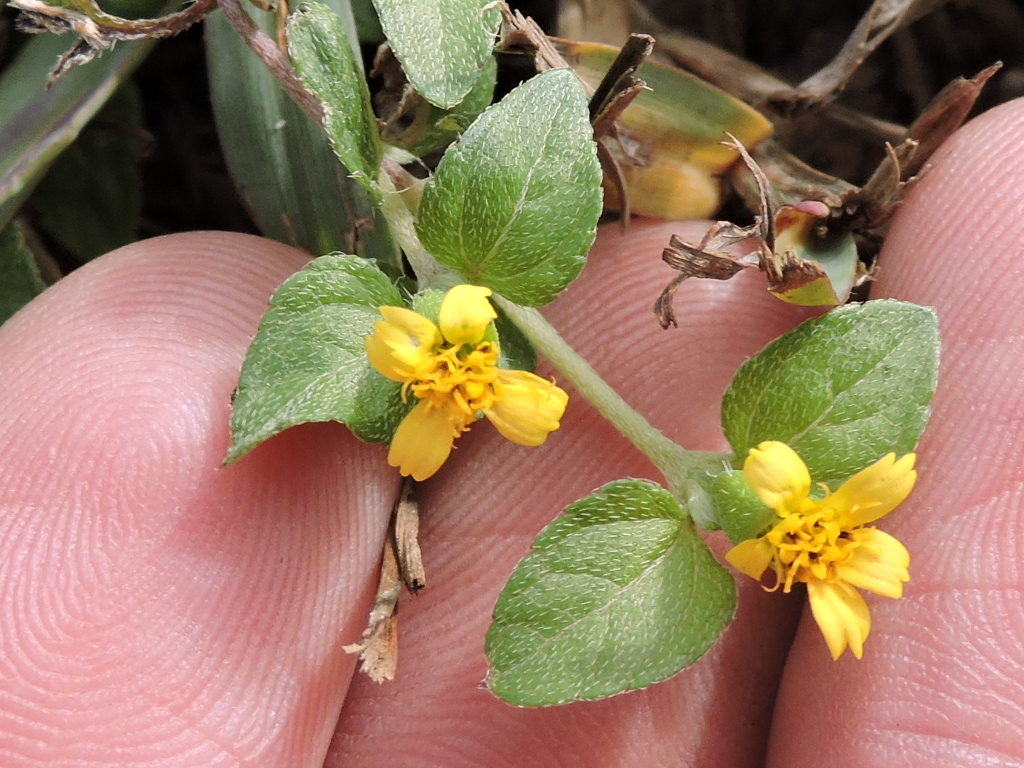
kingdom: Plantae
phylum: Tracheophyta
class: Magnoliopsida
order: Asterales
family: Asteraceae
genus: Calyptocarpus
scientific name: Calyptocarpus vialis
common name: Straggler daisy
